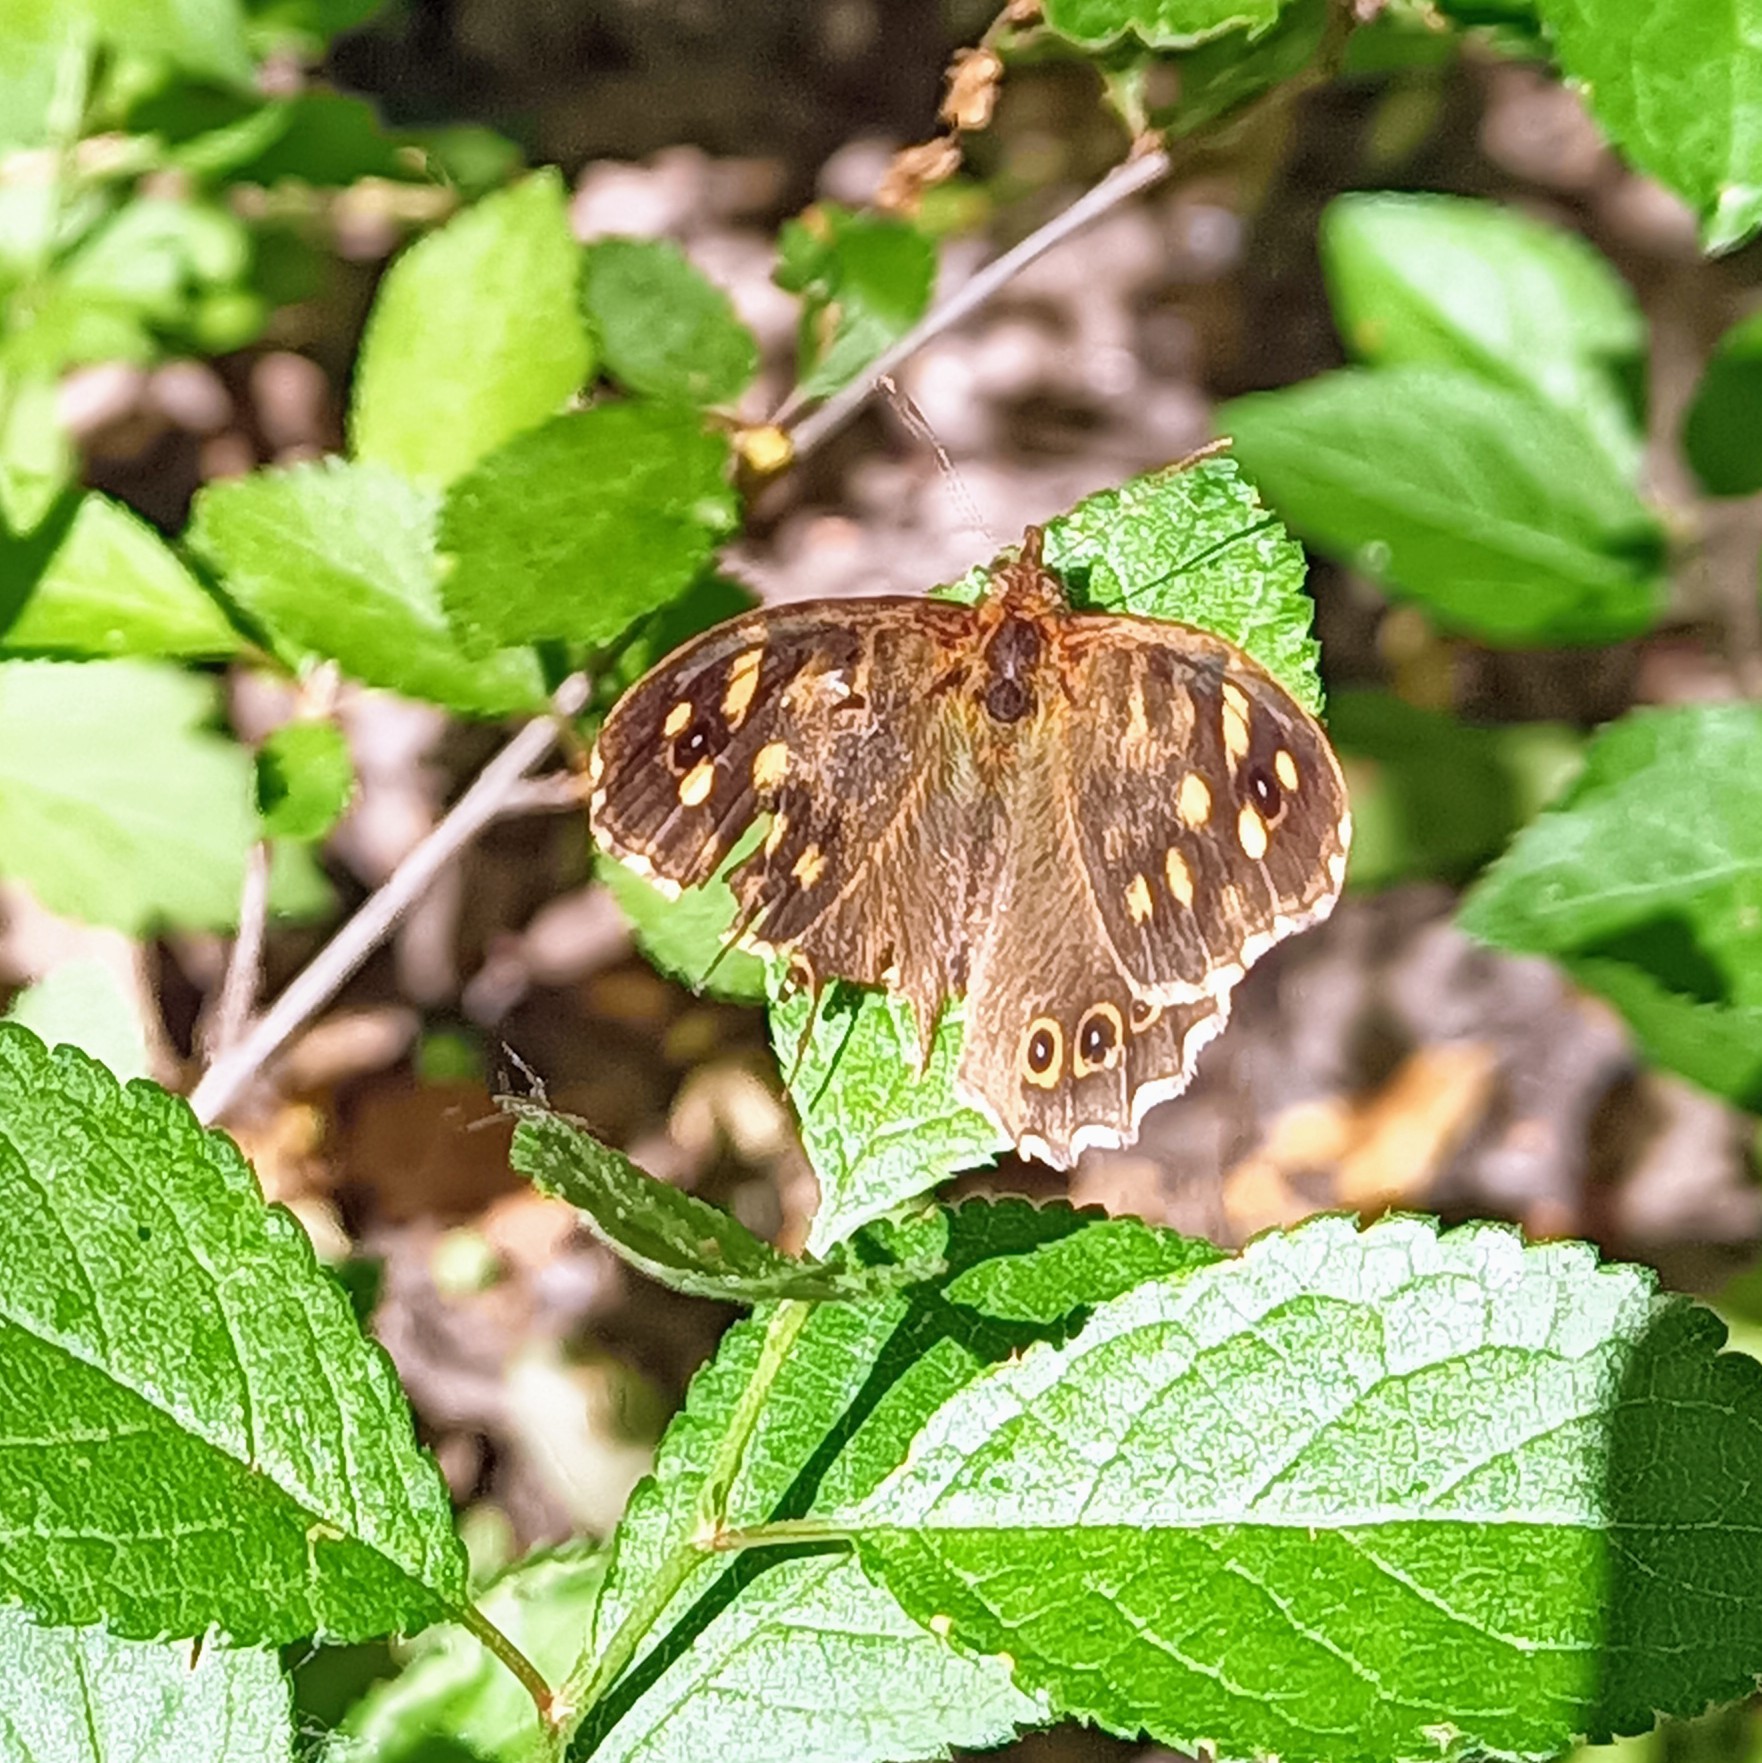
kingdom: Animalia
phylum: Arthropoda
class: Insecta
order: Lepidoptera
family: Nymphalidae
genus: Pararge
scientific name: Pararge aegeria
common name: Speckled wood
